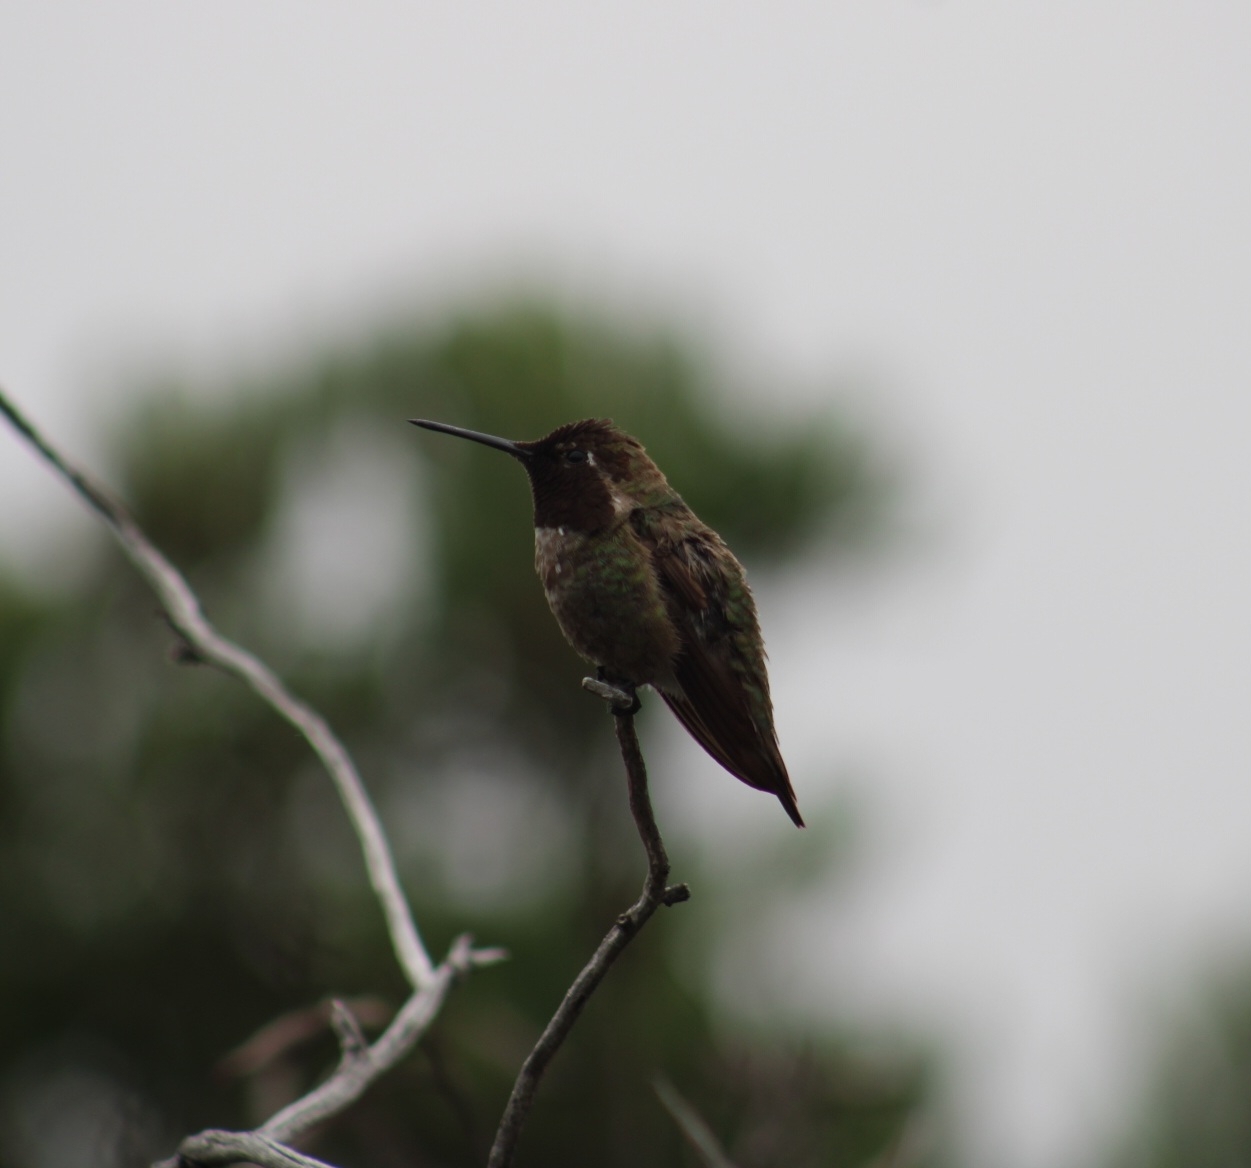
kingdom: Animalia
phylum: Chordata
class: Aves
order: Apodiformes
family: Trochilidae
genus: Calypte
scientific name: Calypte anna
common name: Anna's hummingbird
